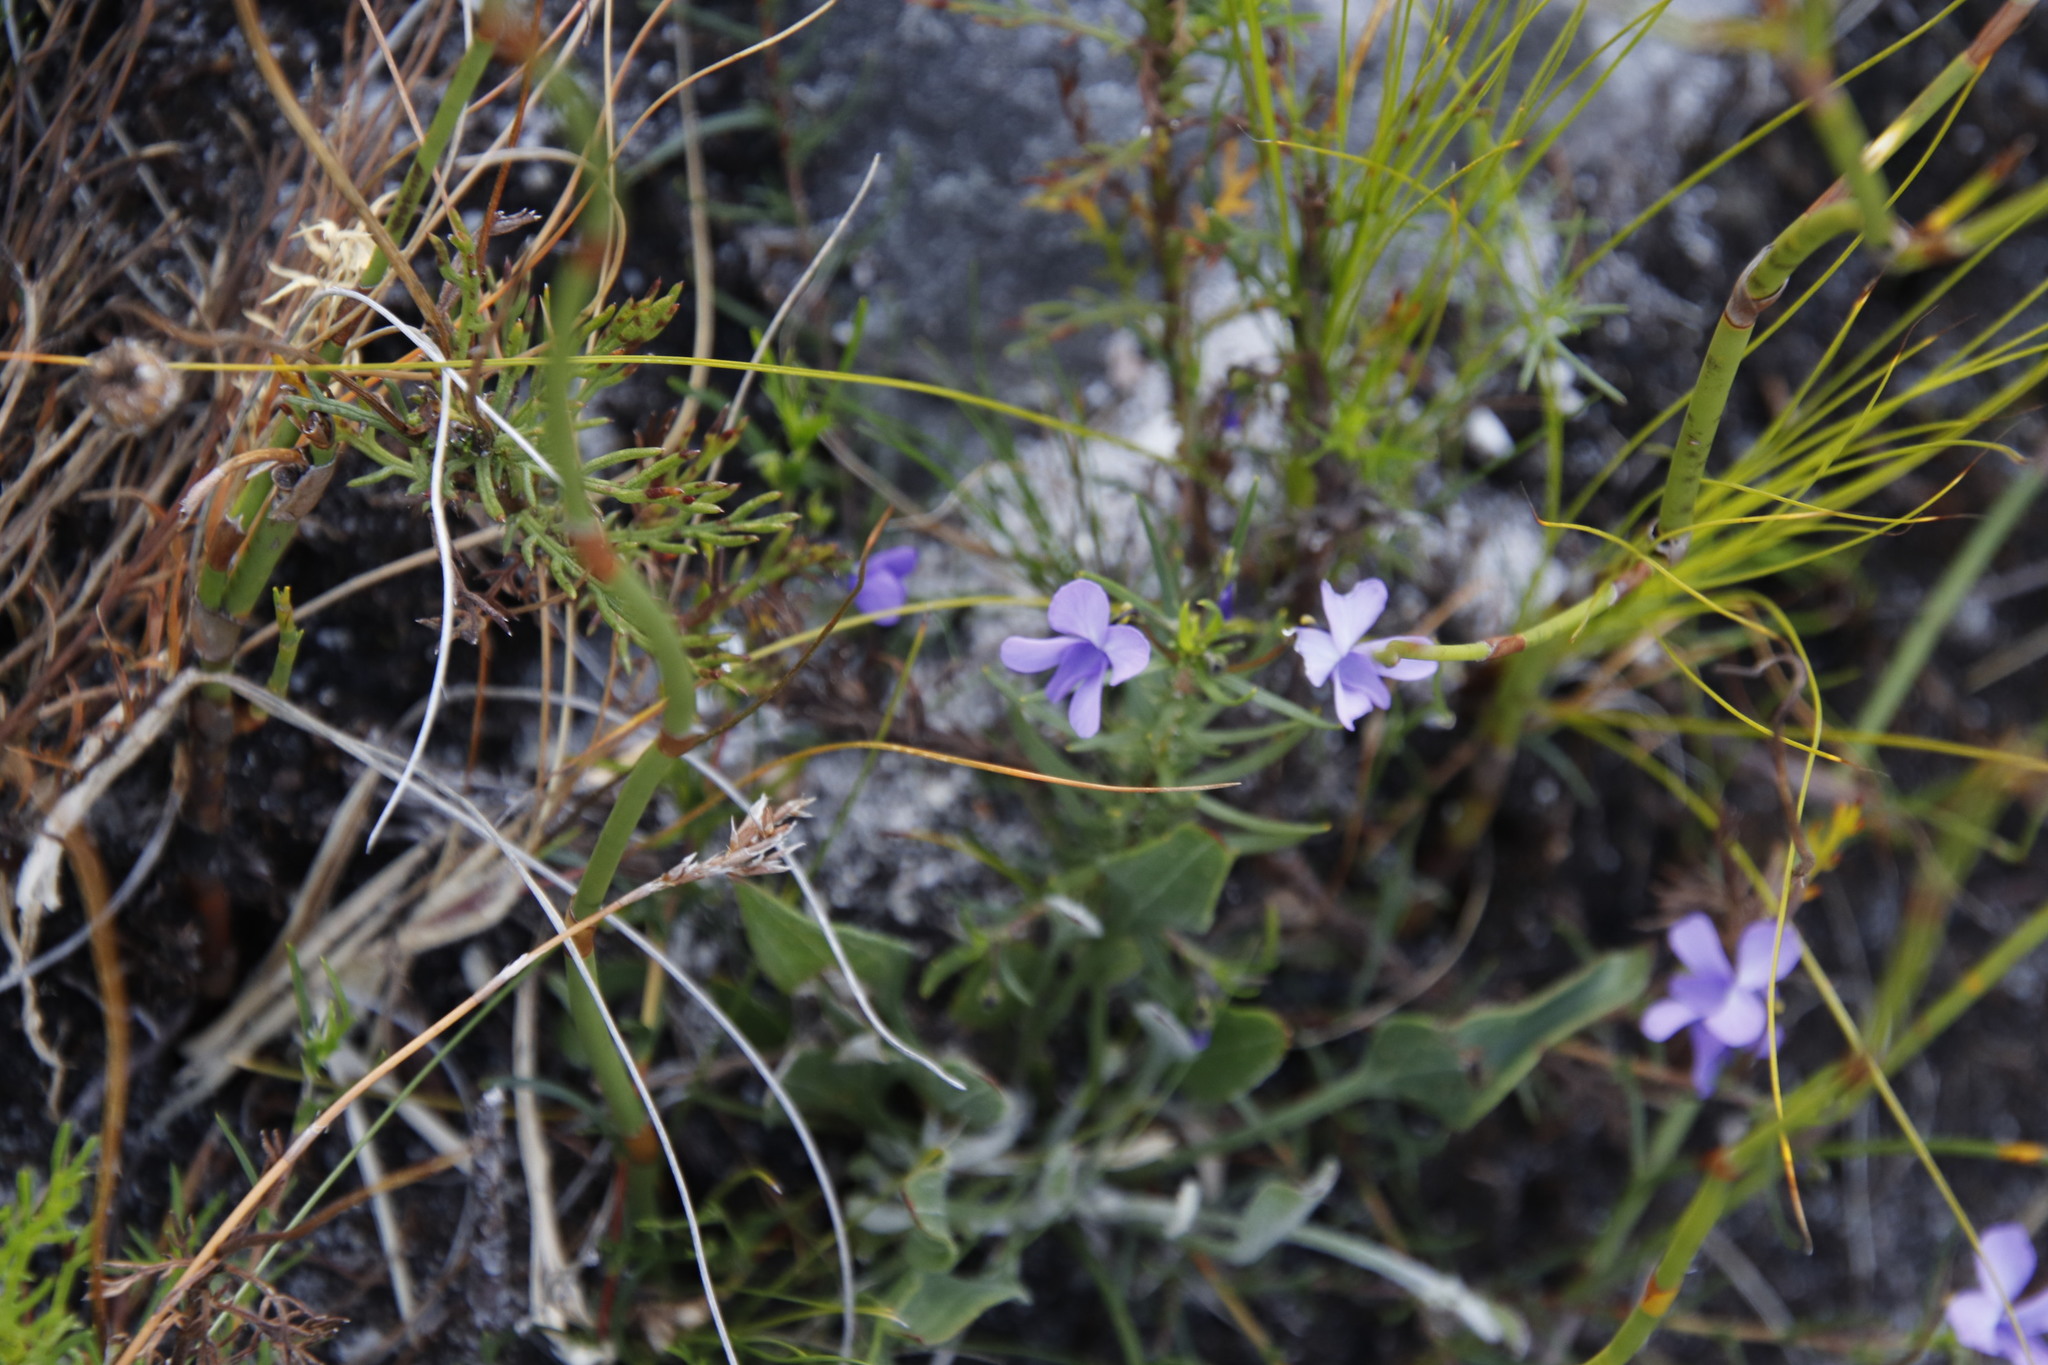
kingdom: Plantae
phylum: Tracheophyta
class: Magnoliopsida
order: Malpighiales
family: Violaceae
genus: Viola
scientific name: Viola decumbens
